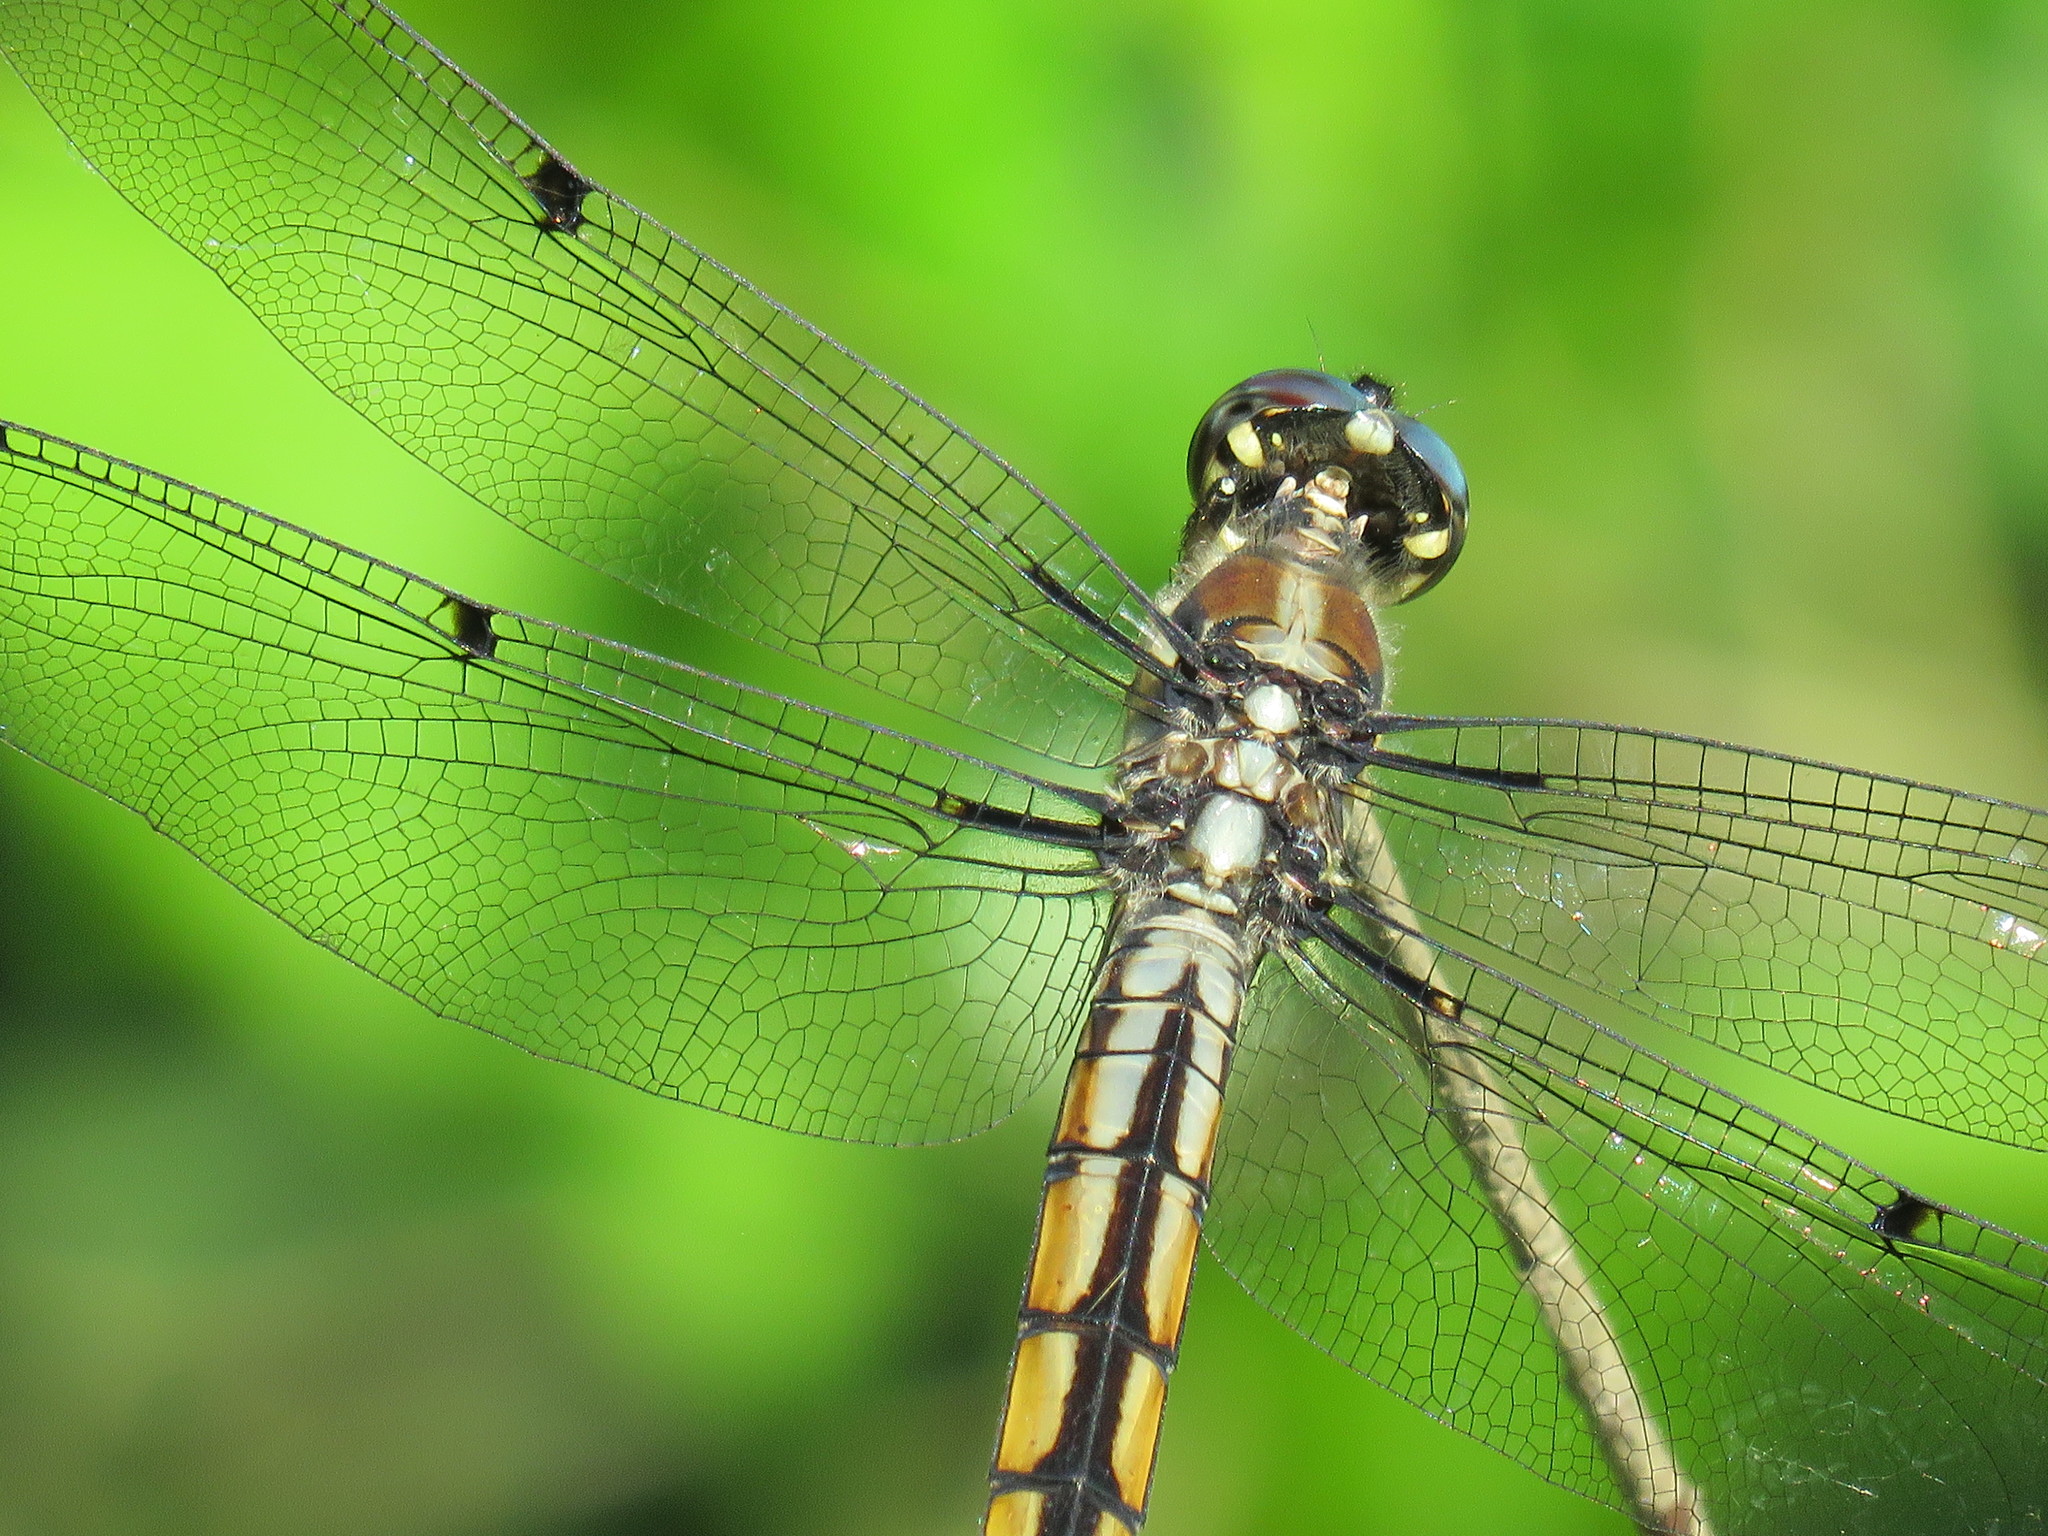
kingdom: Animalia
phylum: Arthropoda
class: Insecta
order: Odonata
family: Libellulidae
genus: Libellula
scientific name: Libellula vibrans
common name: Great blue skimmer
